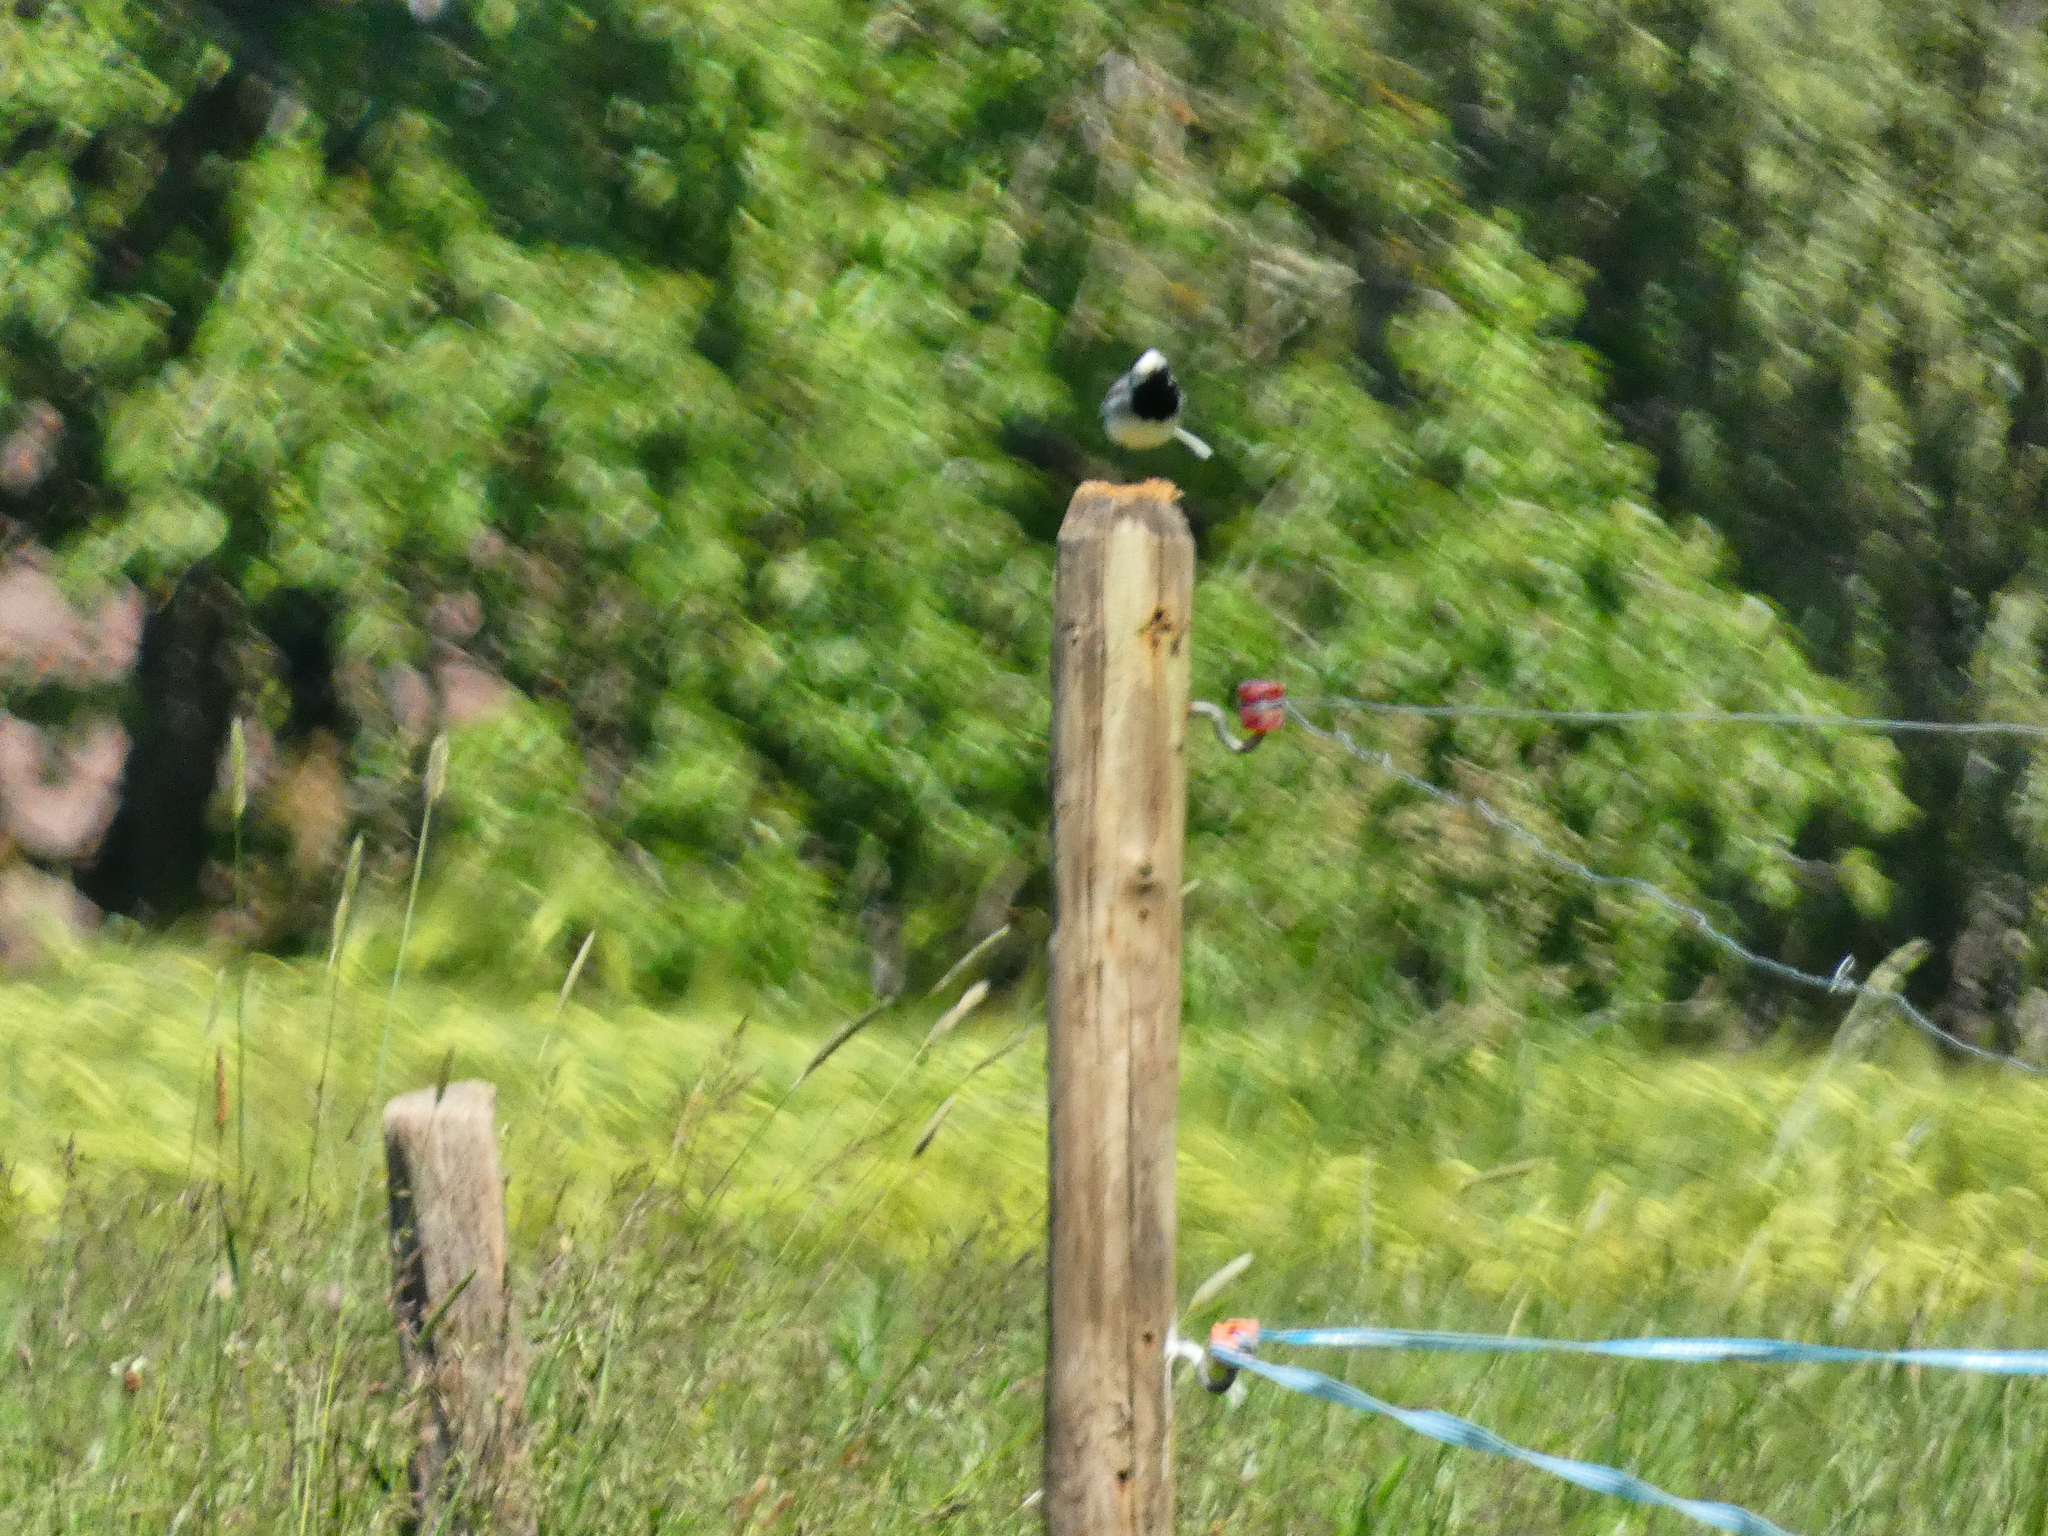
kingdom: Animalia
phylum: Chordata
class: Aves
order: Passeriformes
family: Motacillidae
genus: Motacilla
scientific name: Motacilla alba
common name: White wagtail
